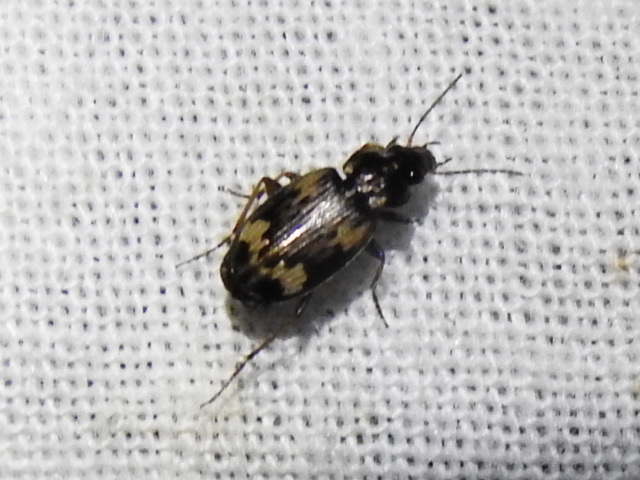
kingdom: Animalia
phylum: Arthropoda
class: Insecta
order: Coleoptera
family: Carabidae
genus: Tetragonoderus
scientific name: Tetragonoderus fasciatus
